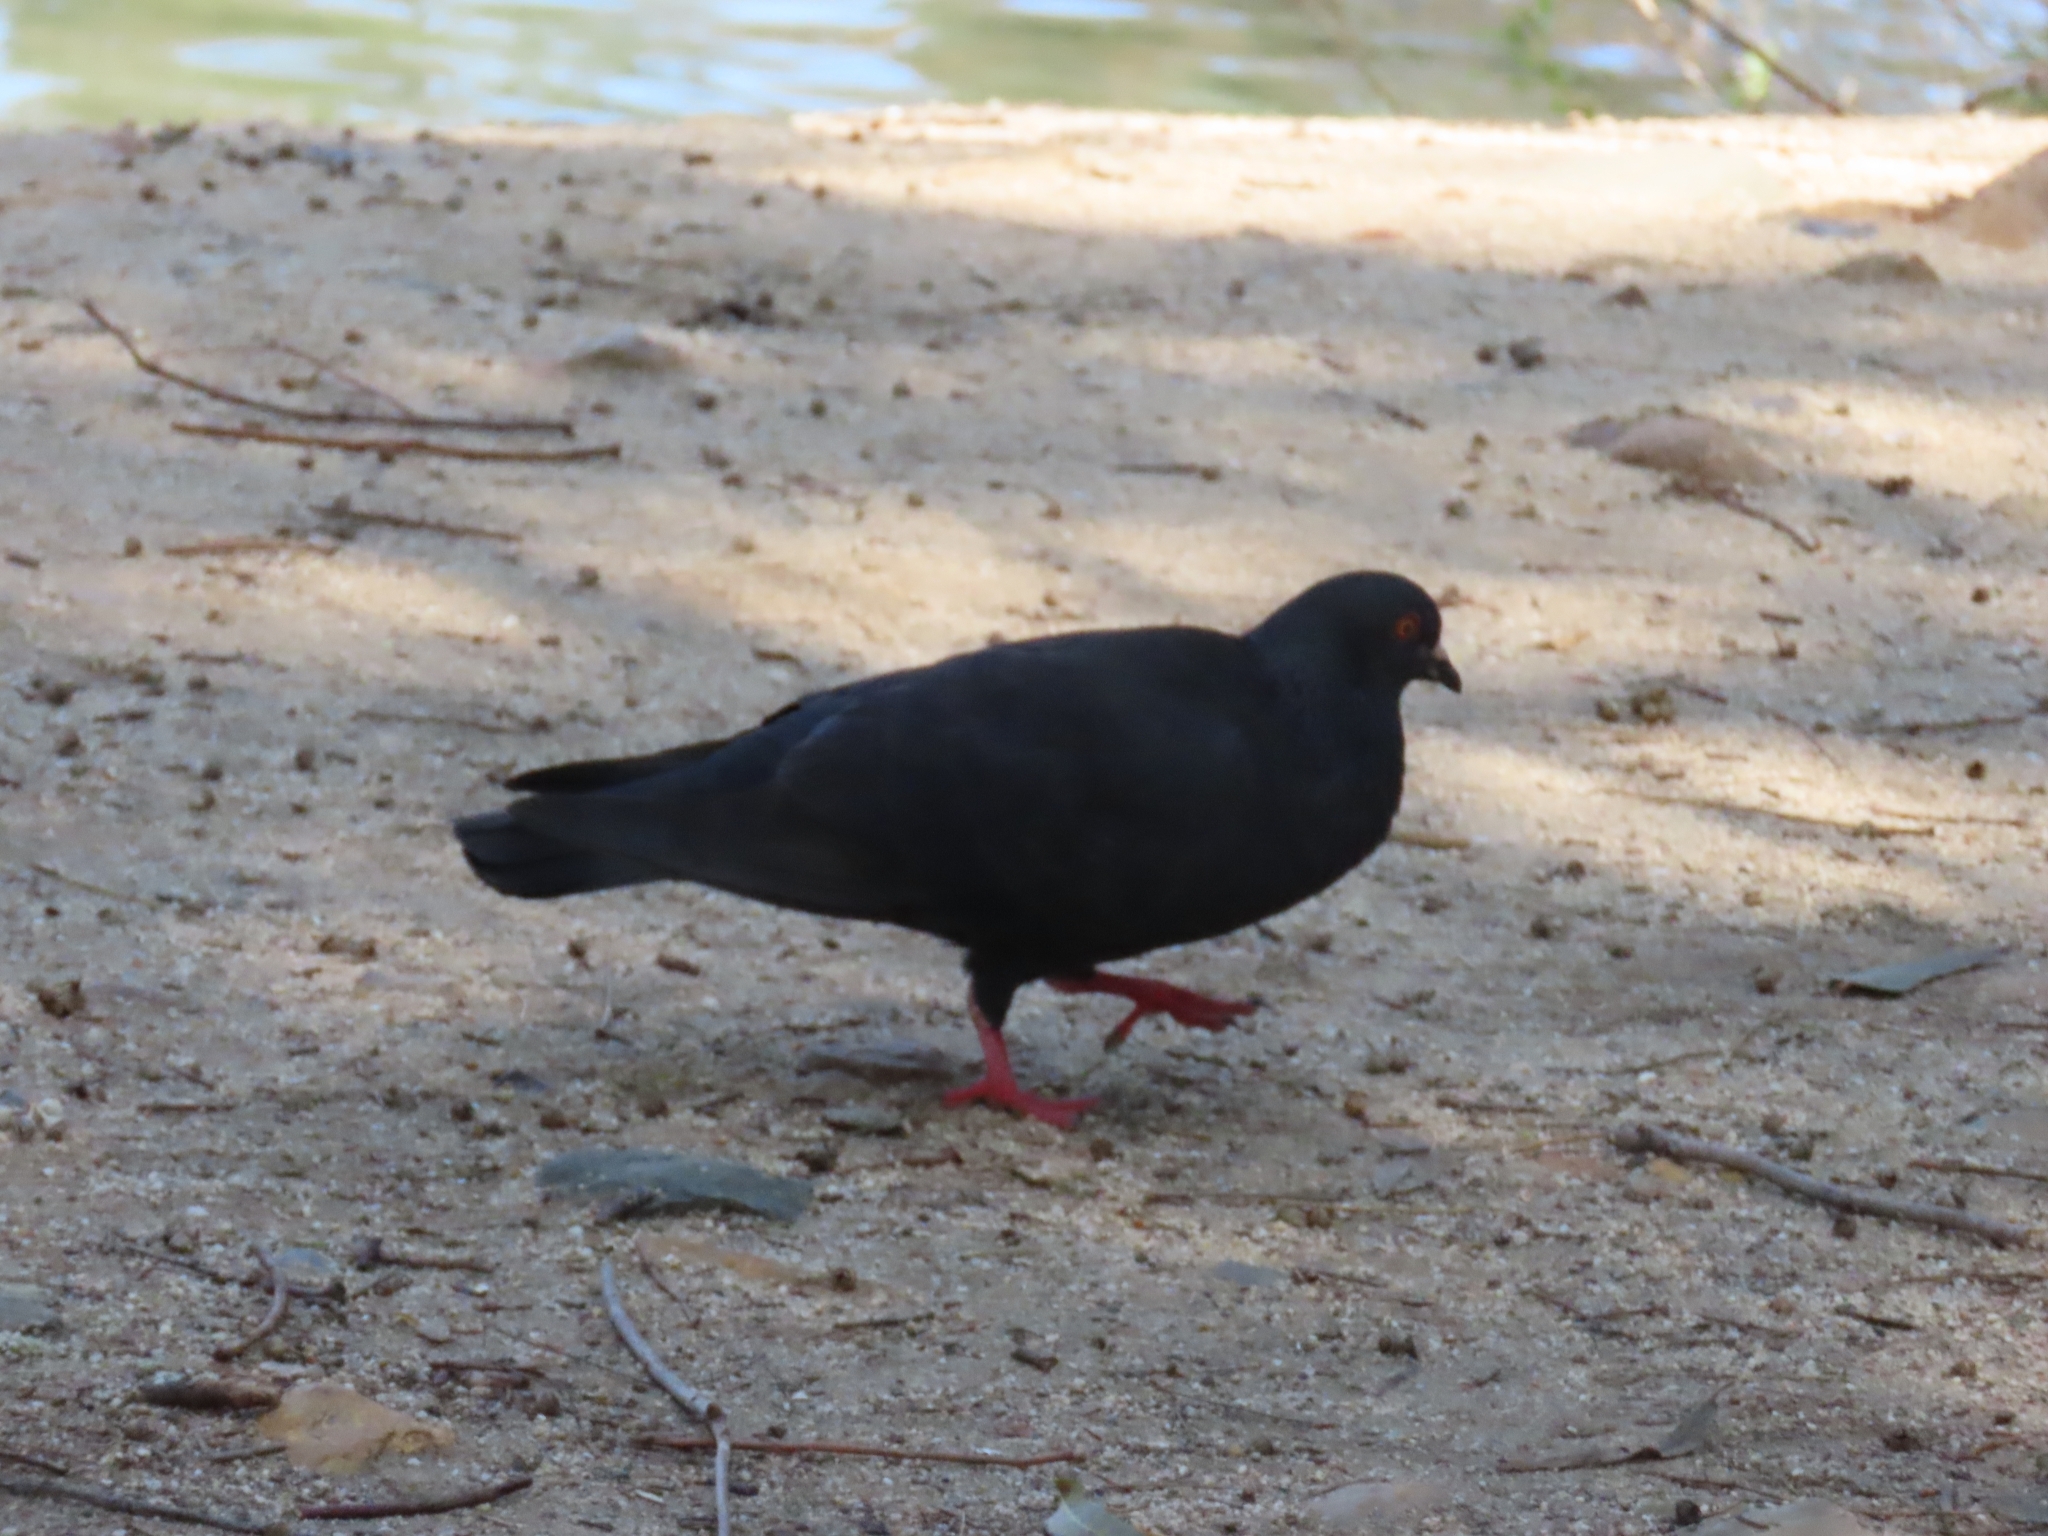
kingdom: Animalia
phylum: Chordata
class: Aves
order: Columbiformes
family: Columbidae
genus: Columba
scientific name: Columba livia
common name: Rock pigeon
